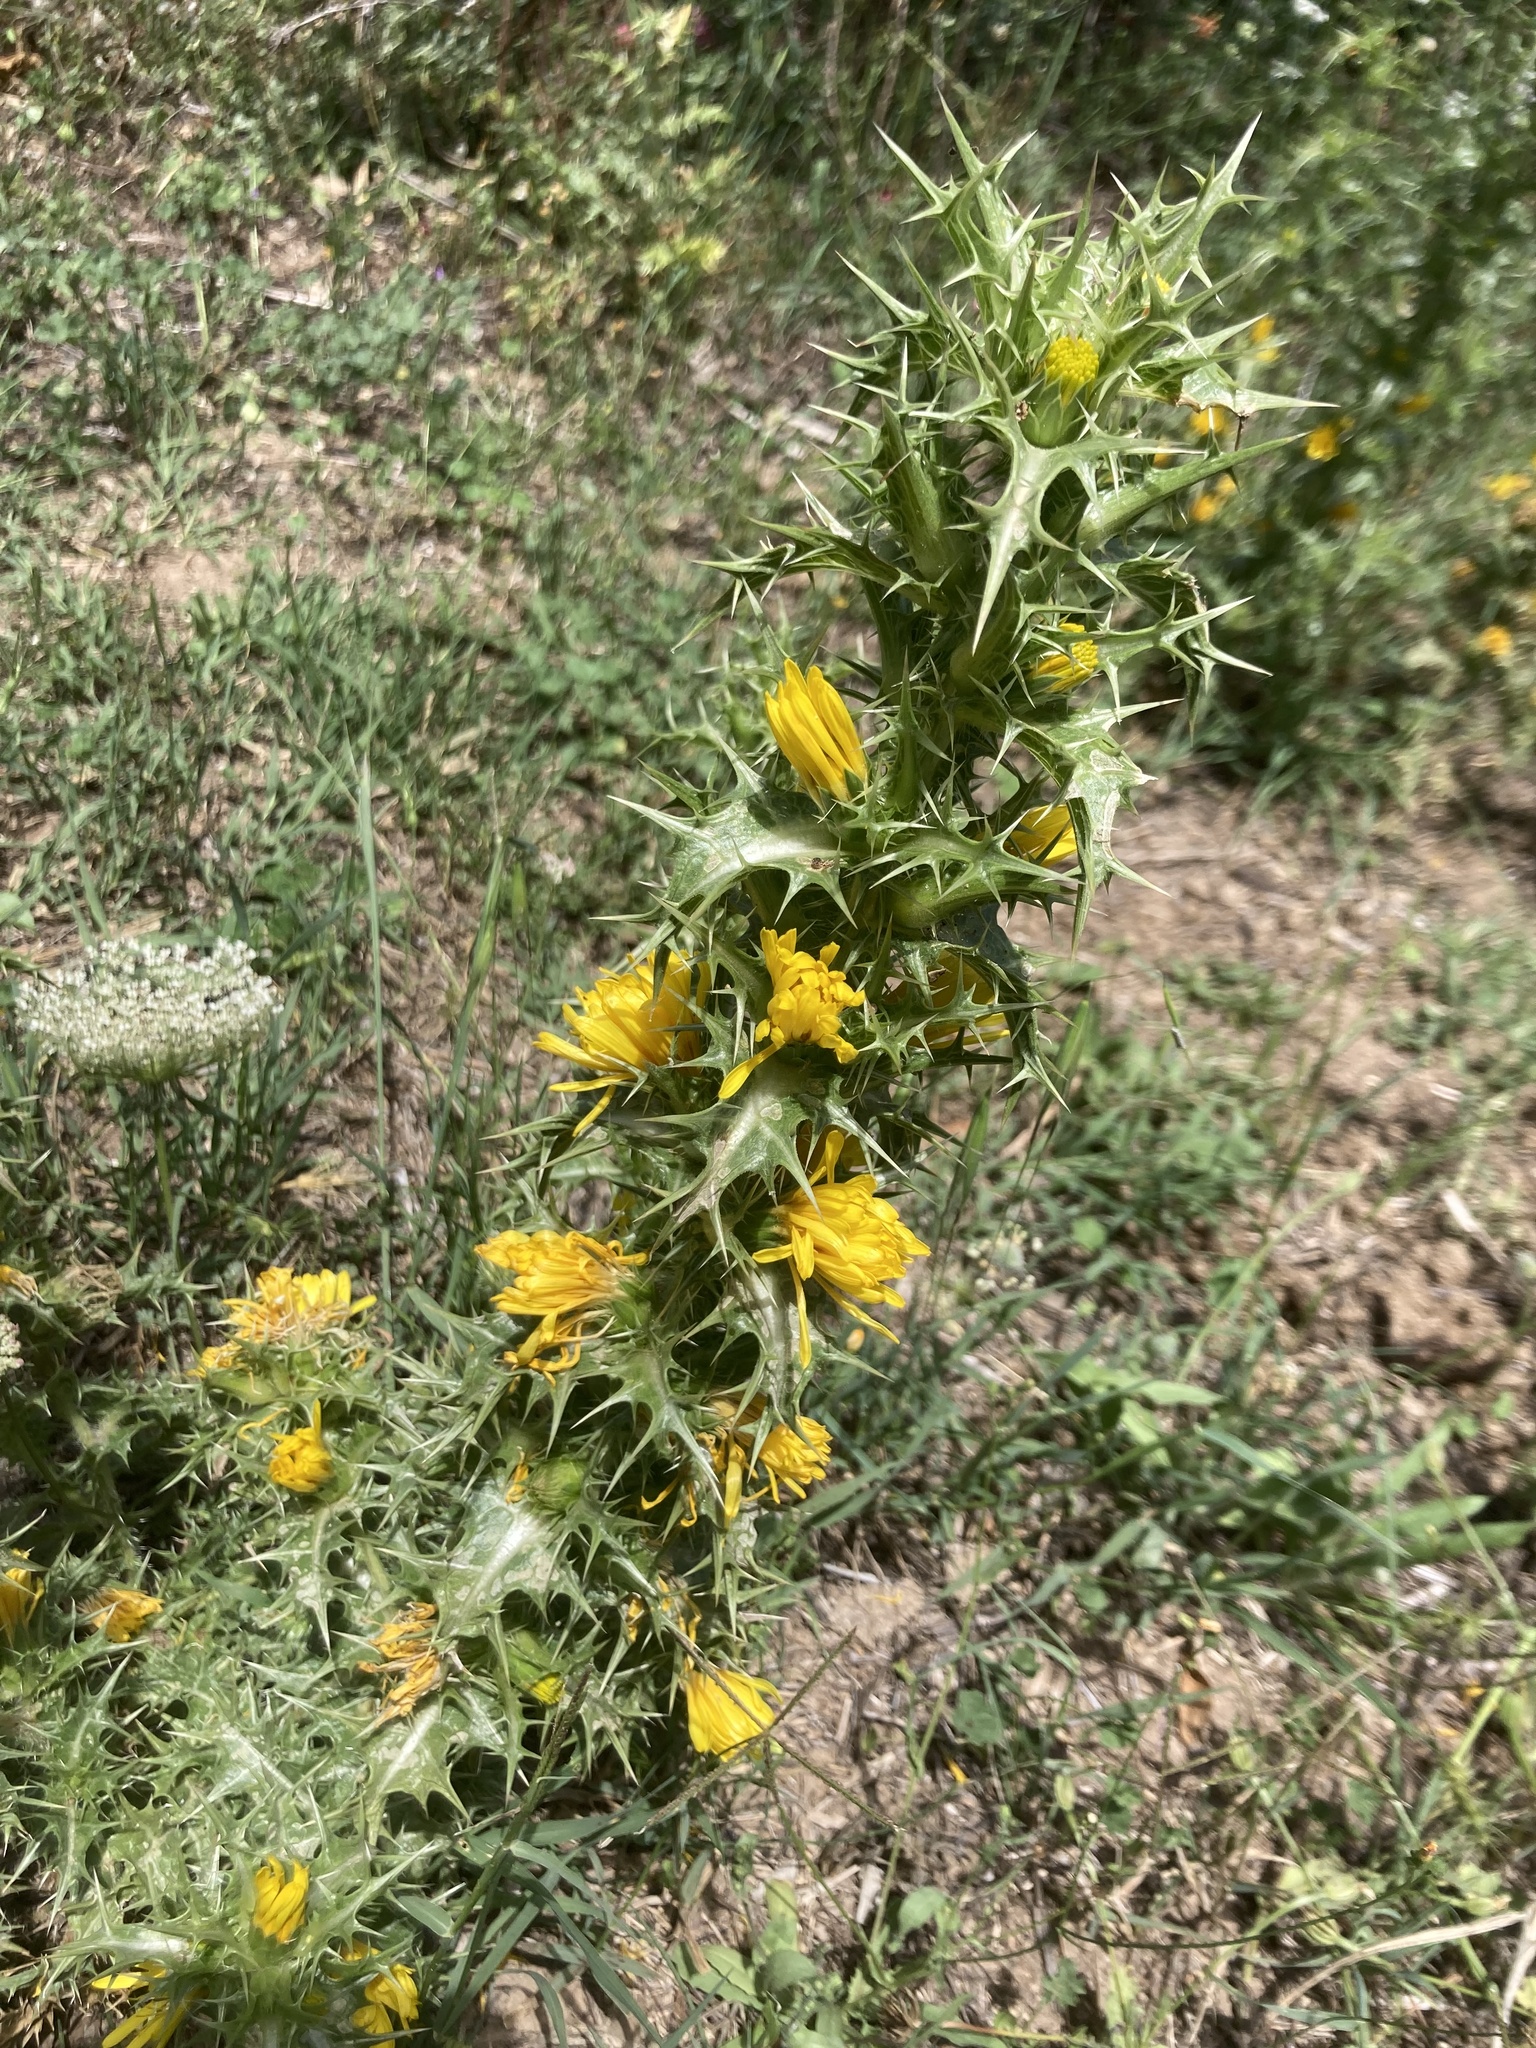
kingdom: Plantae
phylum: Tracheophyta
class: Magnoliopsida
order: Asterales
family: Asteraceae
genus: Scolymus
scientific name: Scolymus hispanicus
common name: Golden thistle
